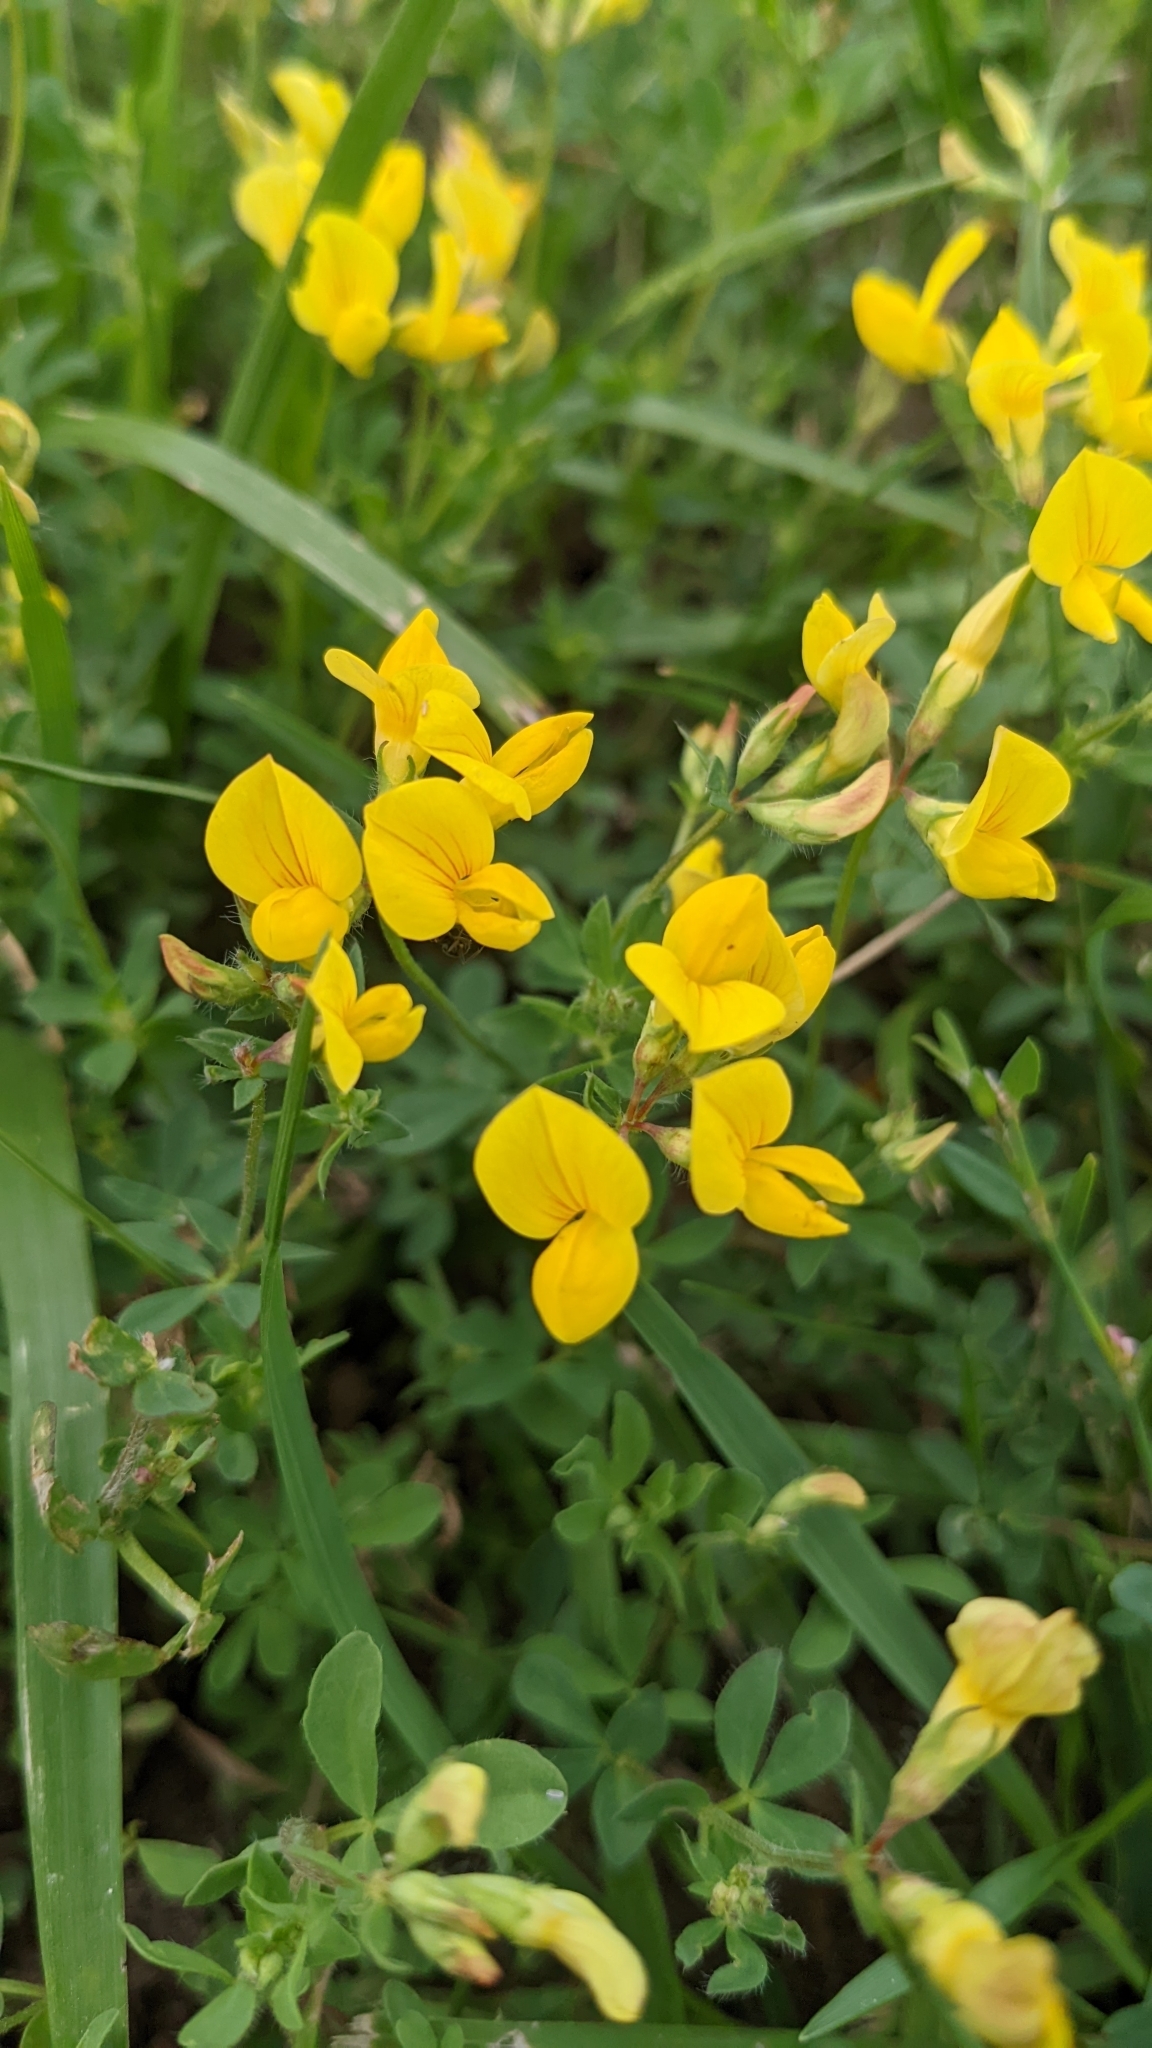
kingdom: Plantae
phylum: Tracheophyta
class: Magnoliopsida
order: Fabales
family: Fabaceae
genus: Lotus
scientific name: Lotus corniculatus
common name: Common bird's-foot-trefoil
